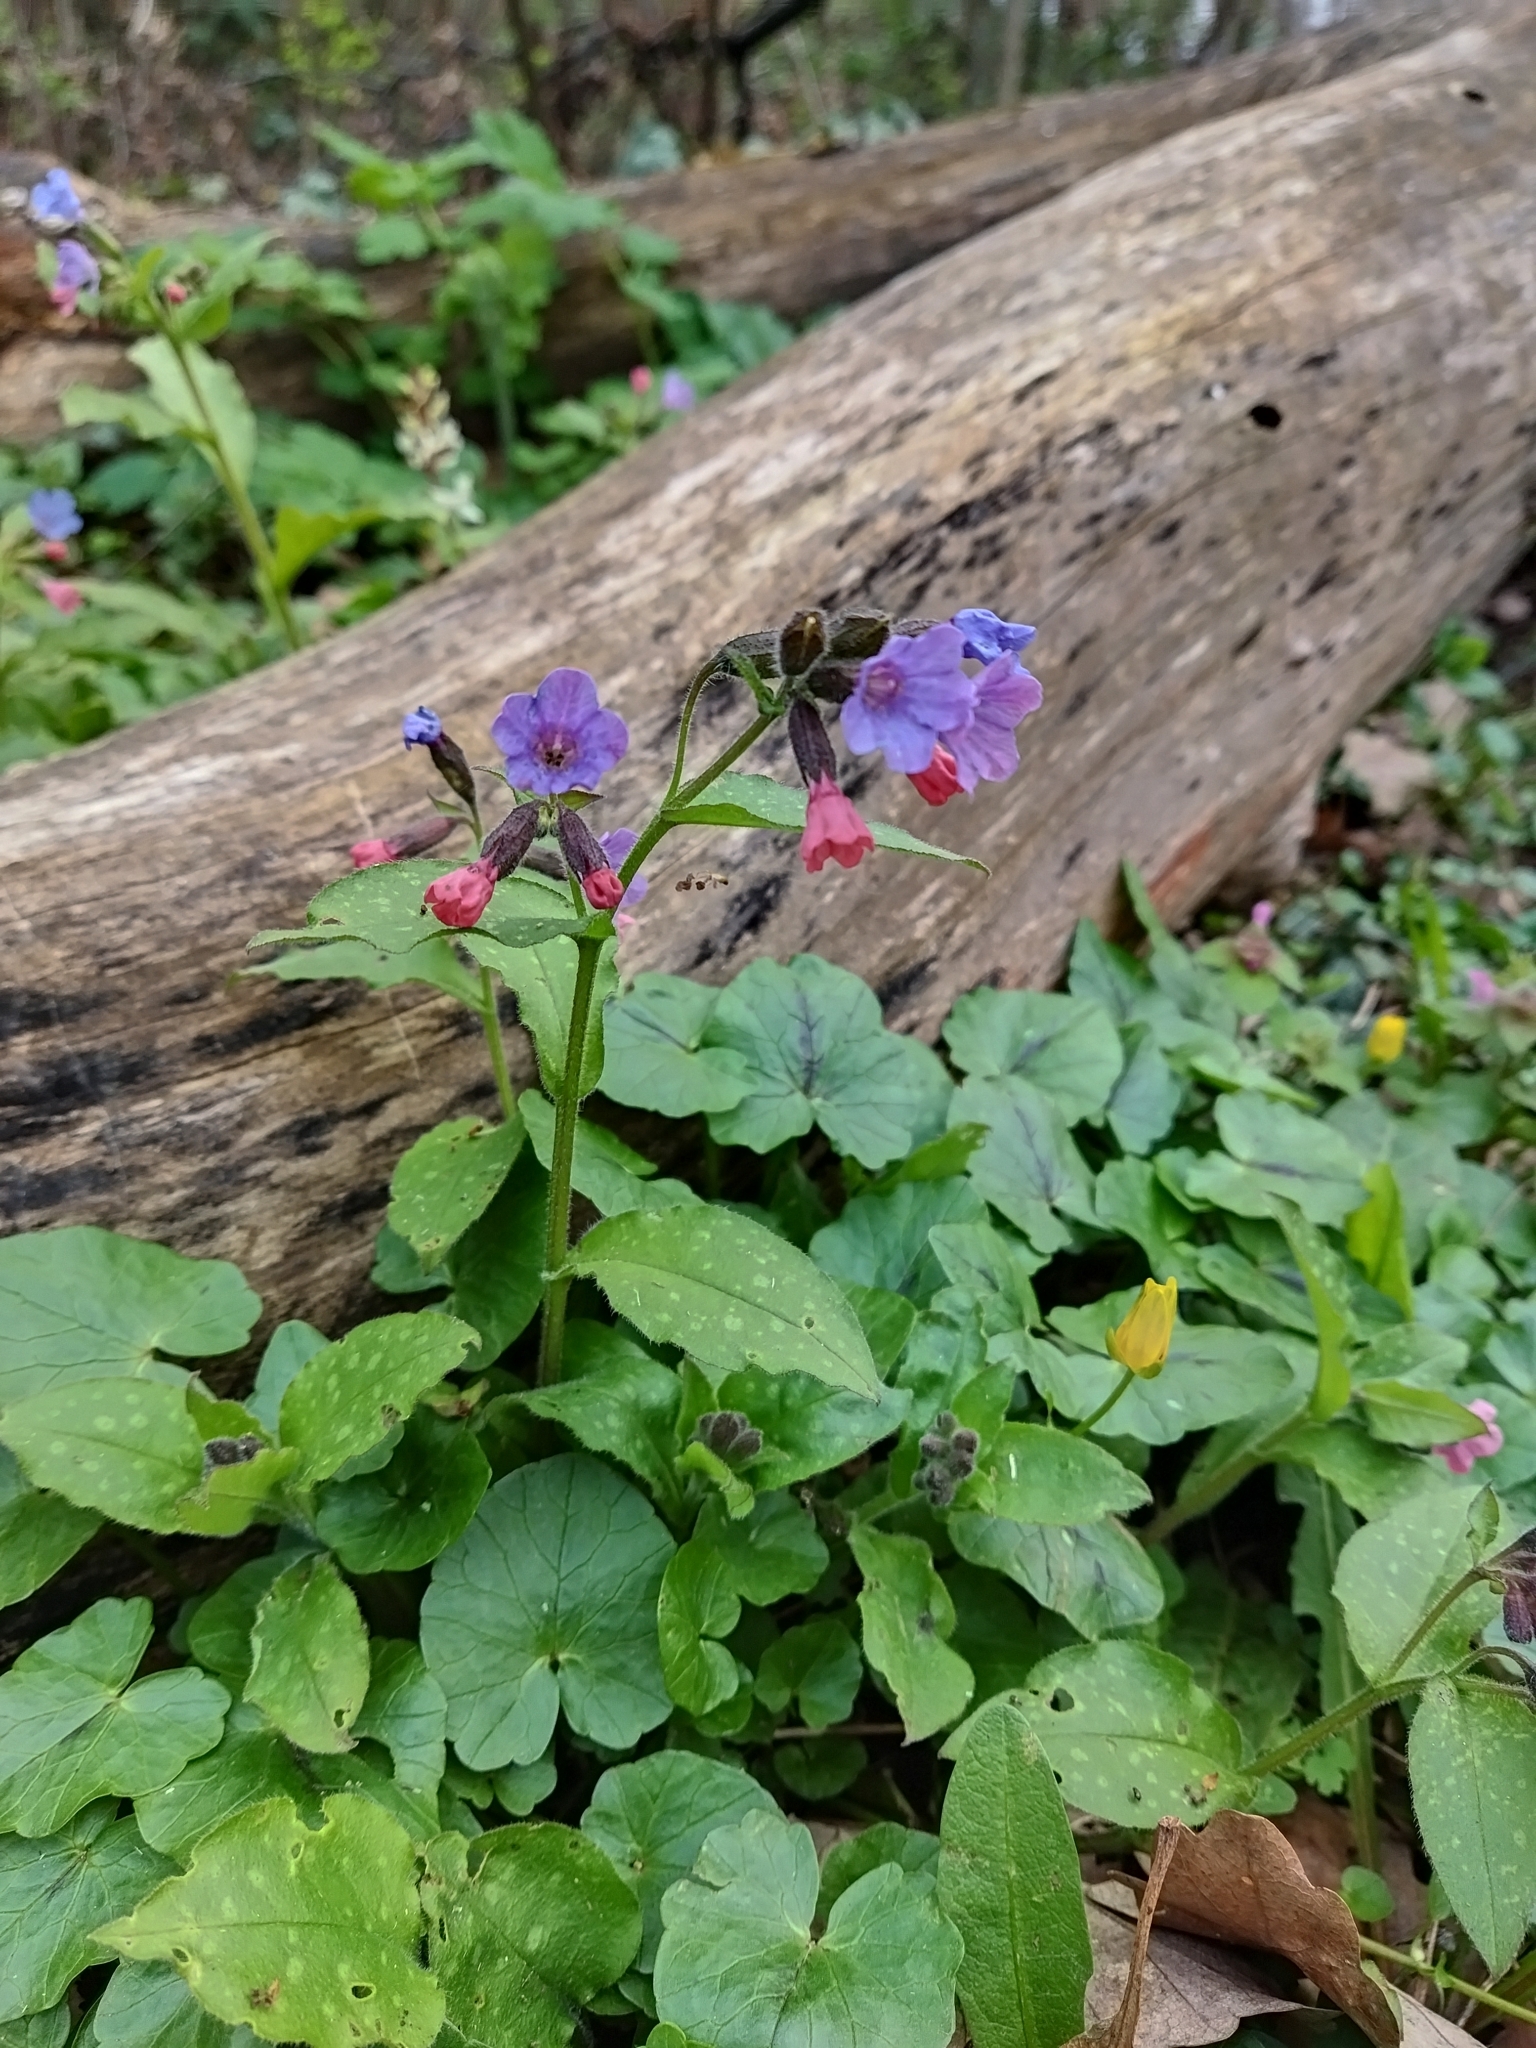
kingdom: Plantae
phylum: Tracheophyta
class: Magnoliopsida
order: Boraginales
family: Boraginaceae
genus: Pulmonaria
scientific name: Pulmonaria officinalis
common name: Lungwort
